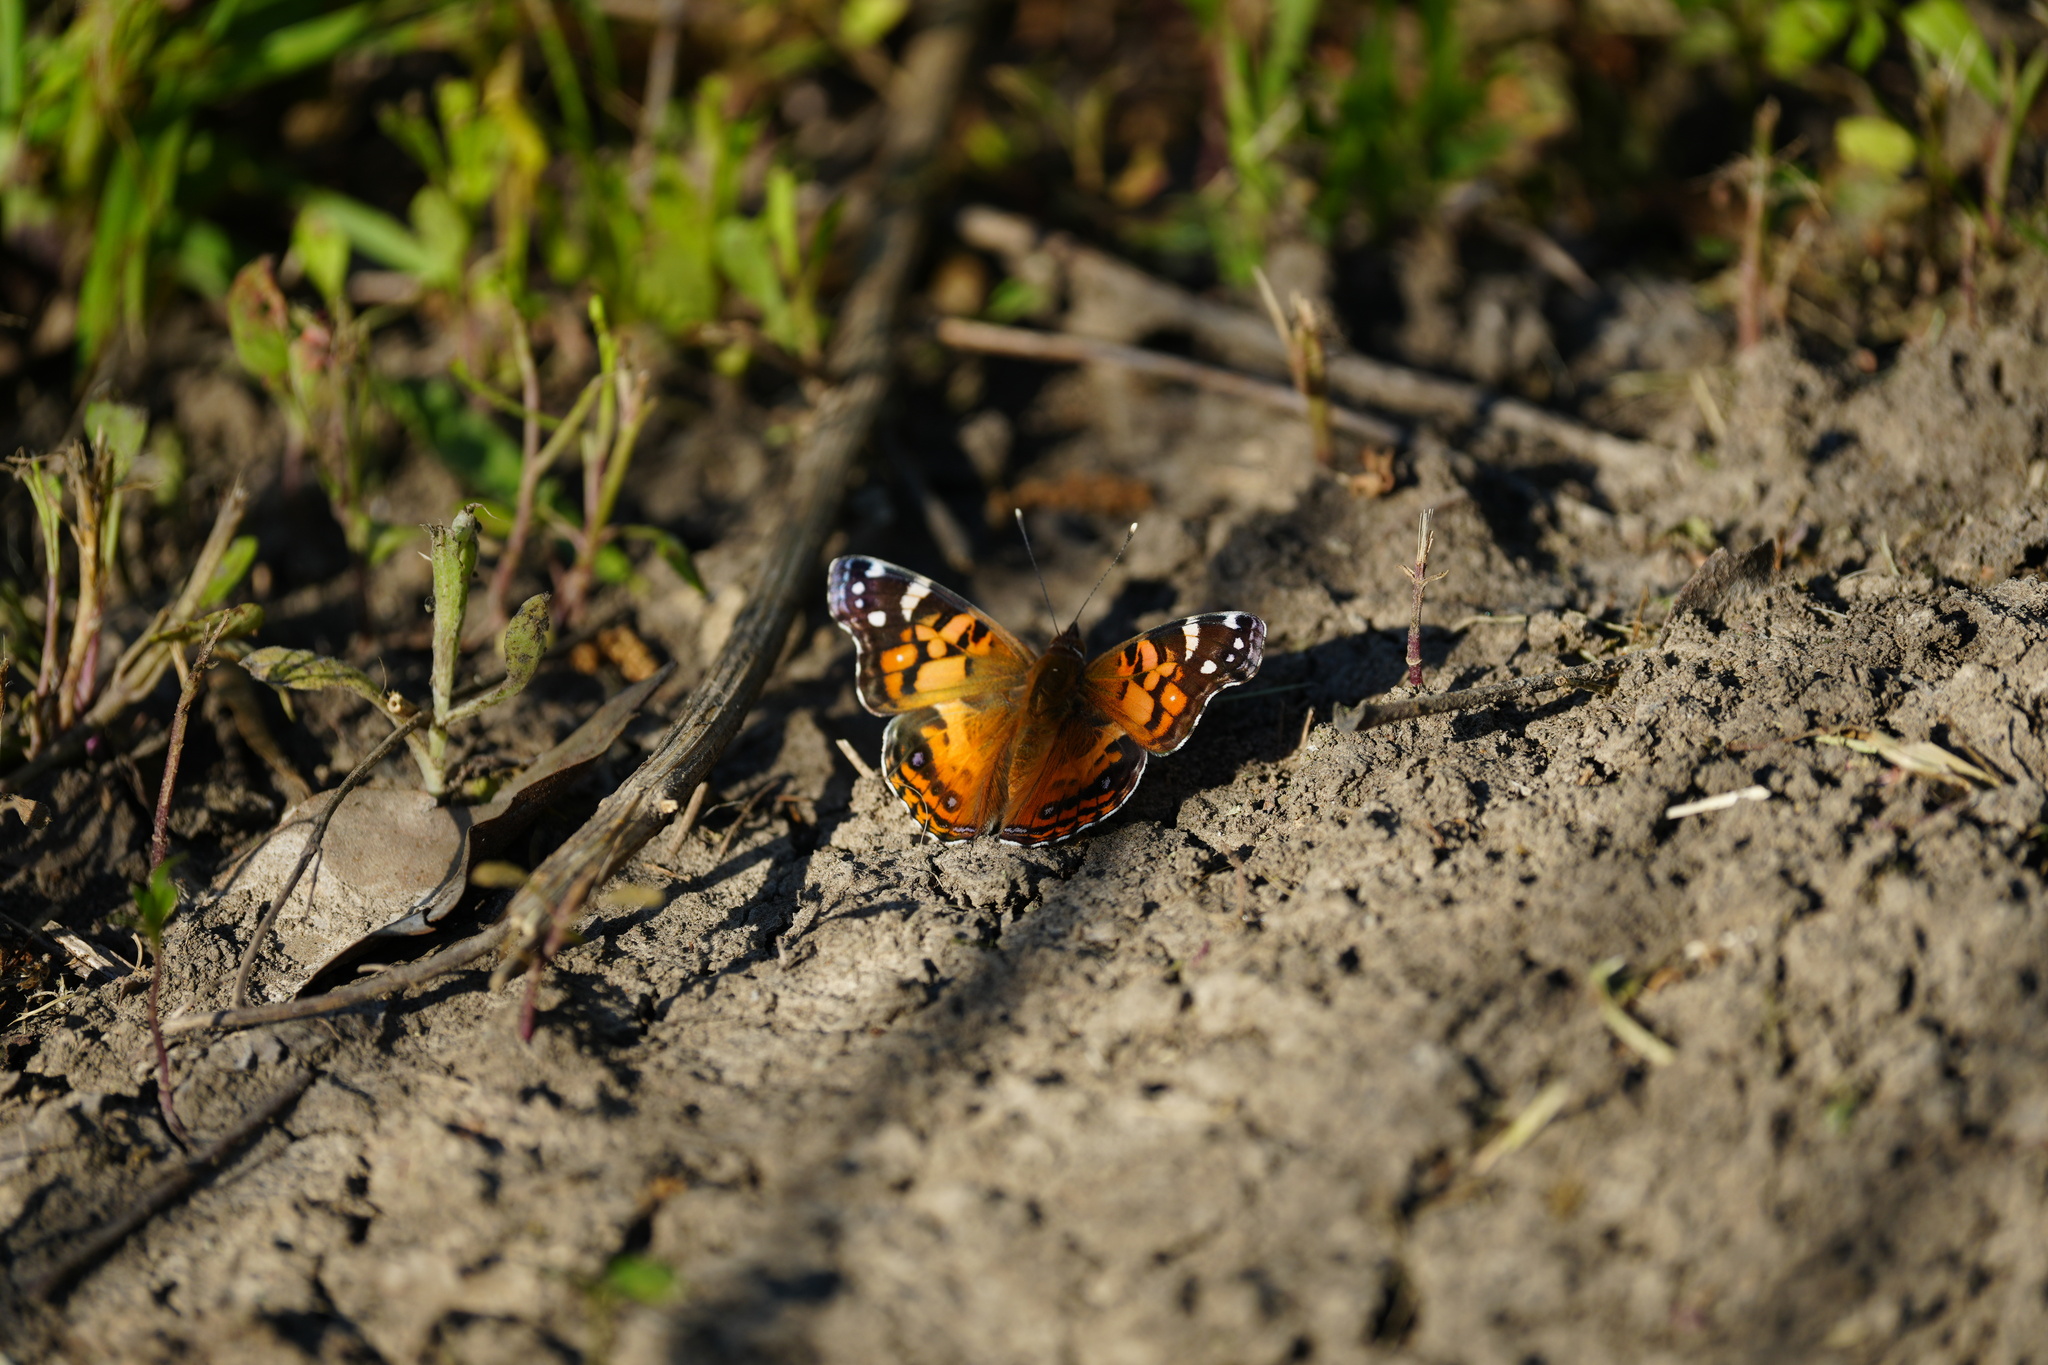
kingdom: Animalia
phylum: Arthropoda
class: Insecta
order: Lepidoptera
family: Nymphalidae
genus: Vanessa
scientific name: Vanessa virginiensis
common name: American lady
